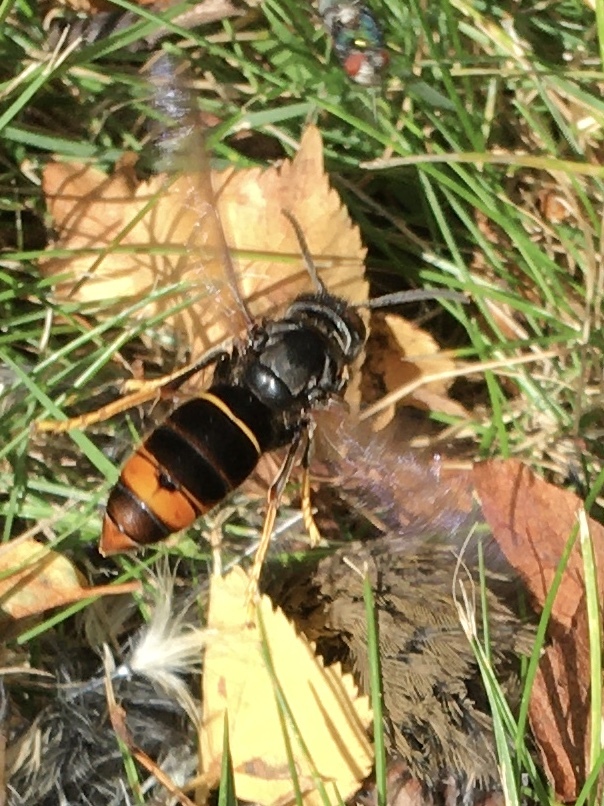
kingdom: Animalia
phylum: Arthropoda
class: Insecta
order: Hymenoptera
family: Vespidae
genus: Vespa
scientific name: Vespa velutina
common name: Asian hornet
